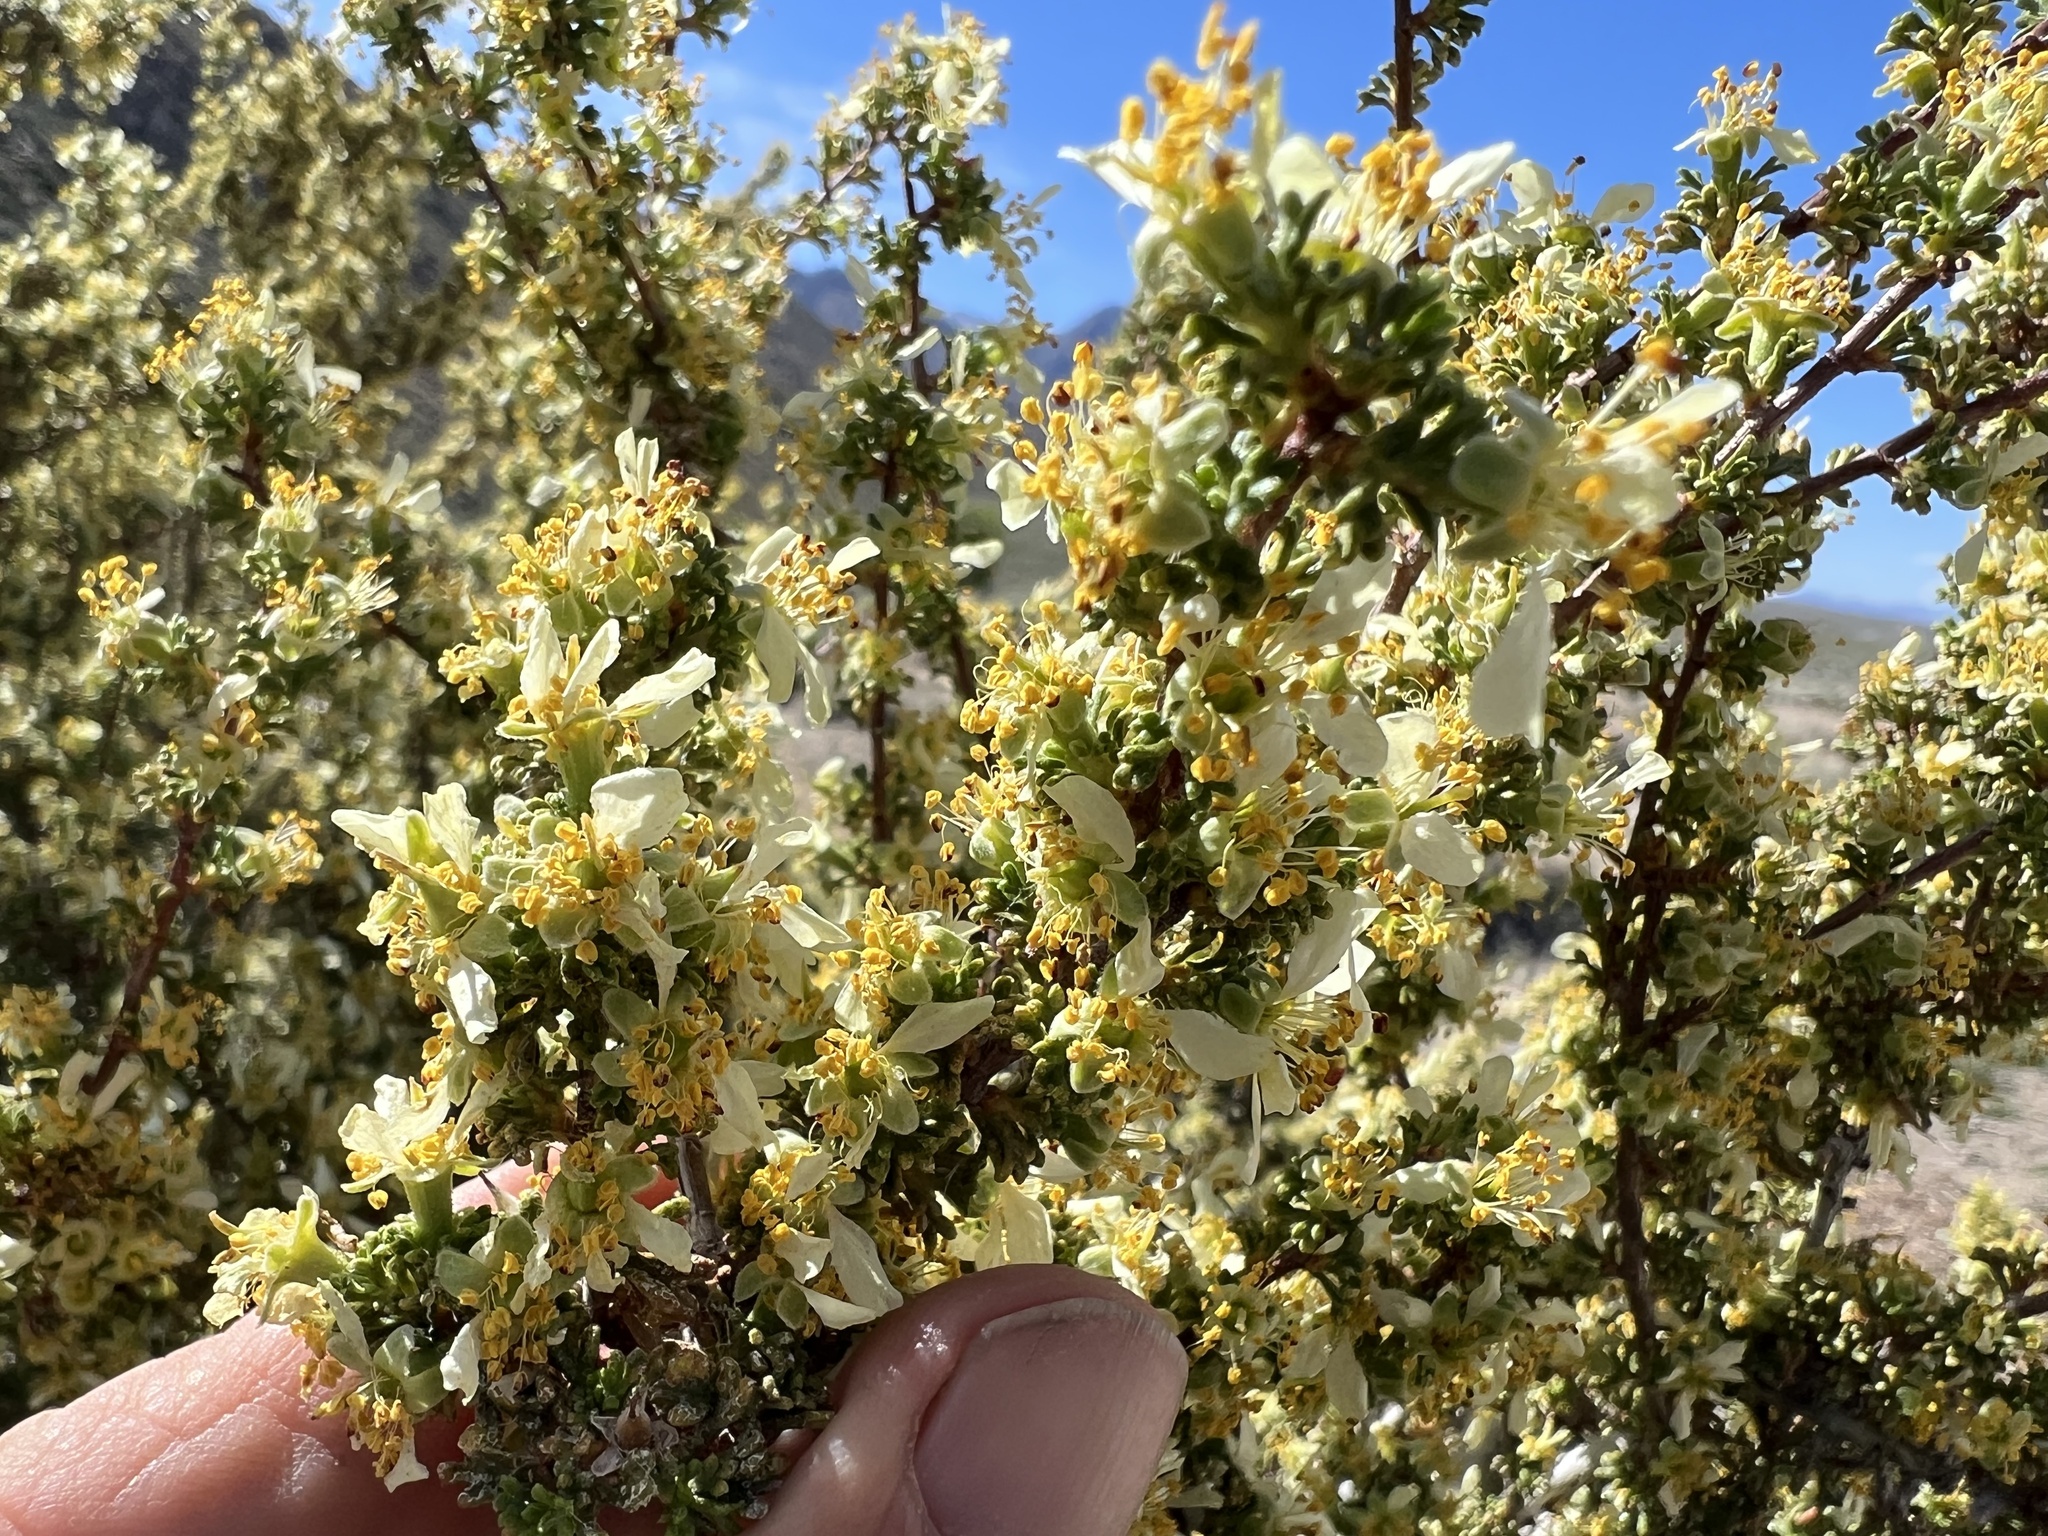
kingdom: Plantae
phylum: Tracheophyta
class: Magnoliopsida
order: Rosales
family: Rosaceae
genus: Purshia
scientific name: Purshia glandulosa
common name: Desert bitterbrush
